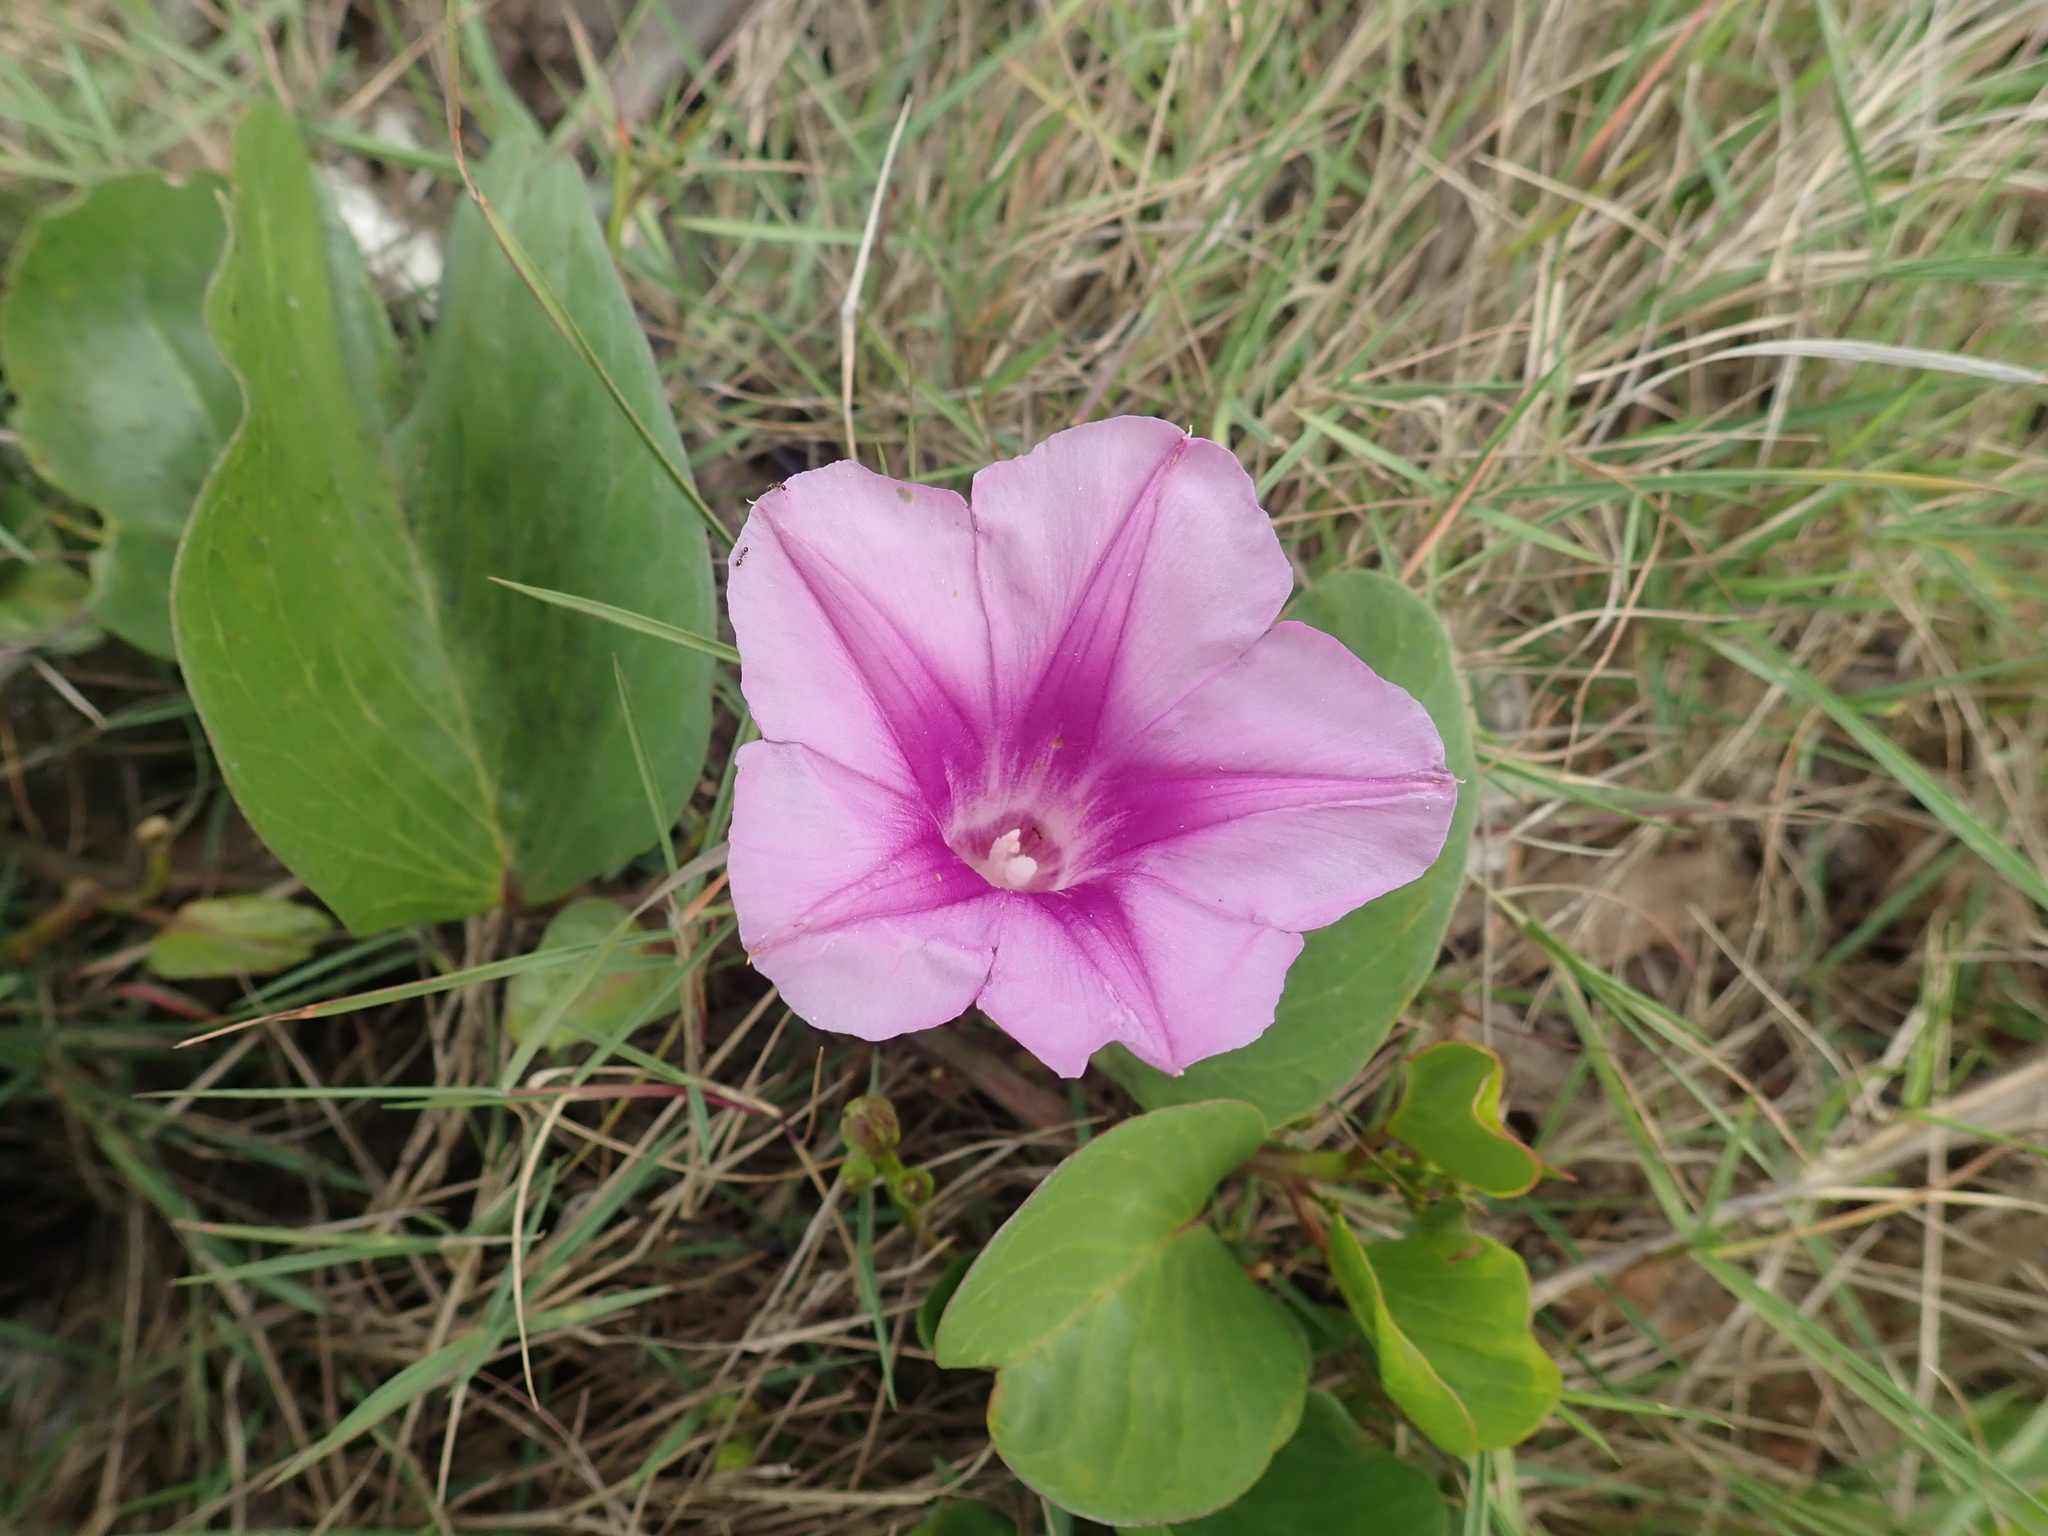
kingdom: Plantae
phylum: Tracheophyta
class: Magnoliopsida
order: Solanales
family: Convolvulaceae
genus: Ipomoea
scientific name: Ipomoea pes-caprae
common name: Beach morning glory
